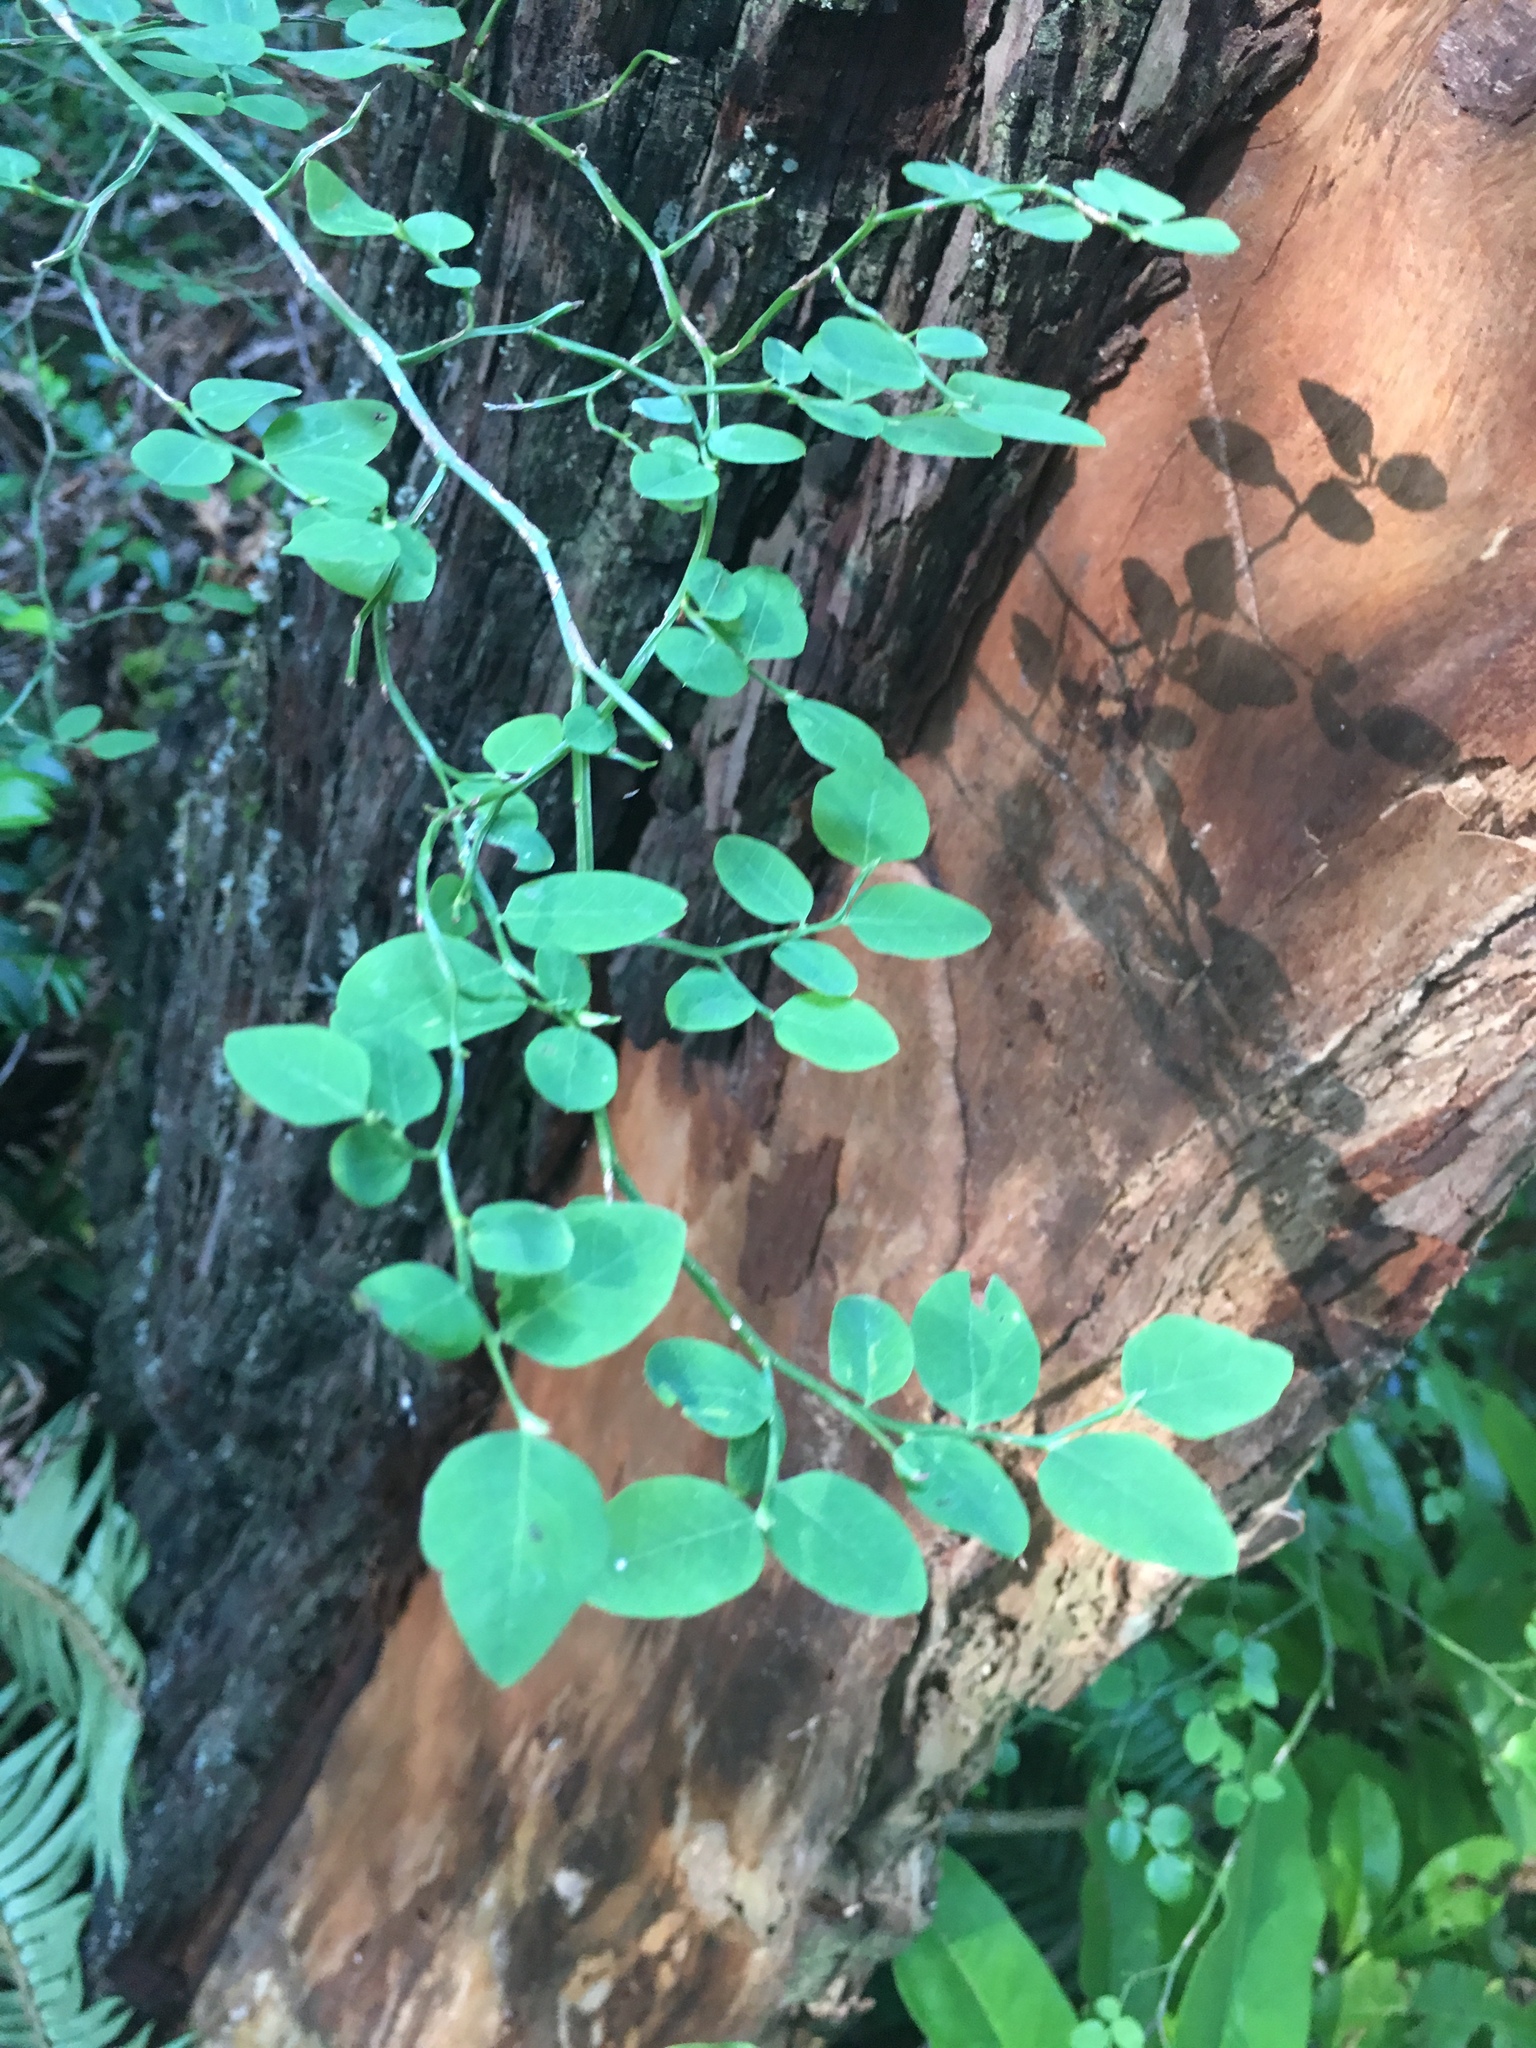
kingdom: Plantae
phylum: Tracheophyta
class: Magnoliopsida
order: Ericales
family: Ericaceae
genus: Vaccinium
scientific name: Vaccinium parvifolium
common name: Red-huckleberry
